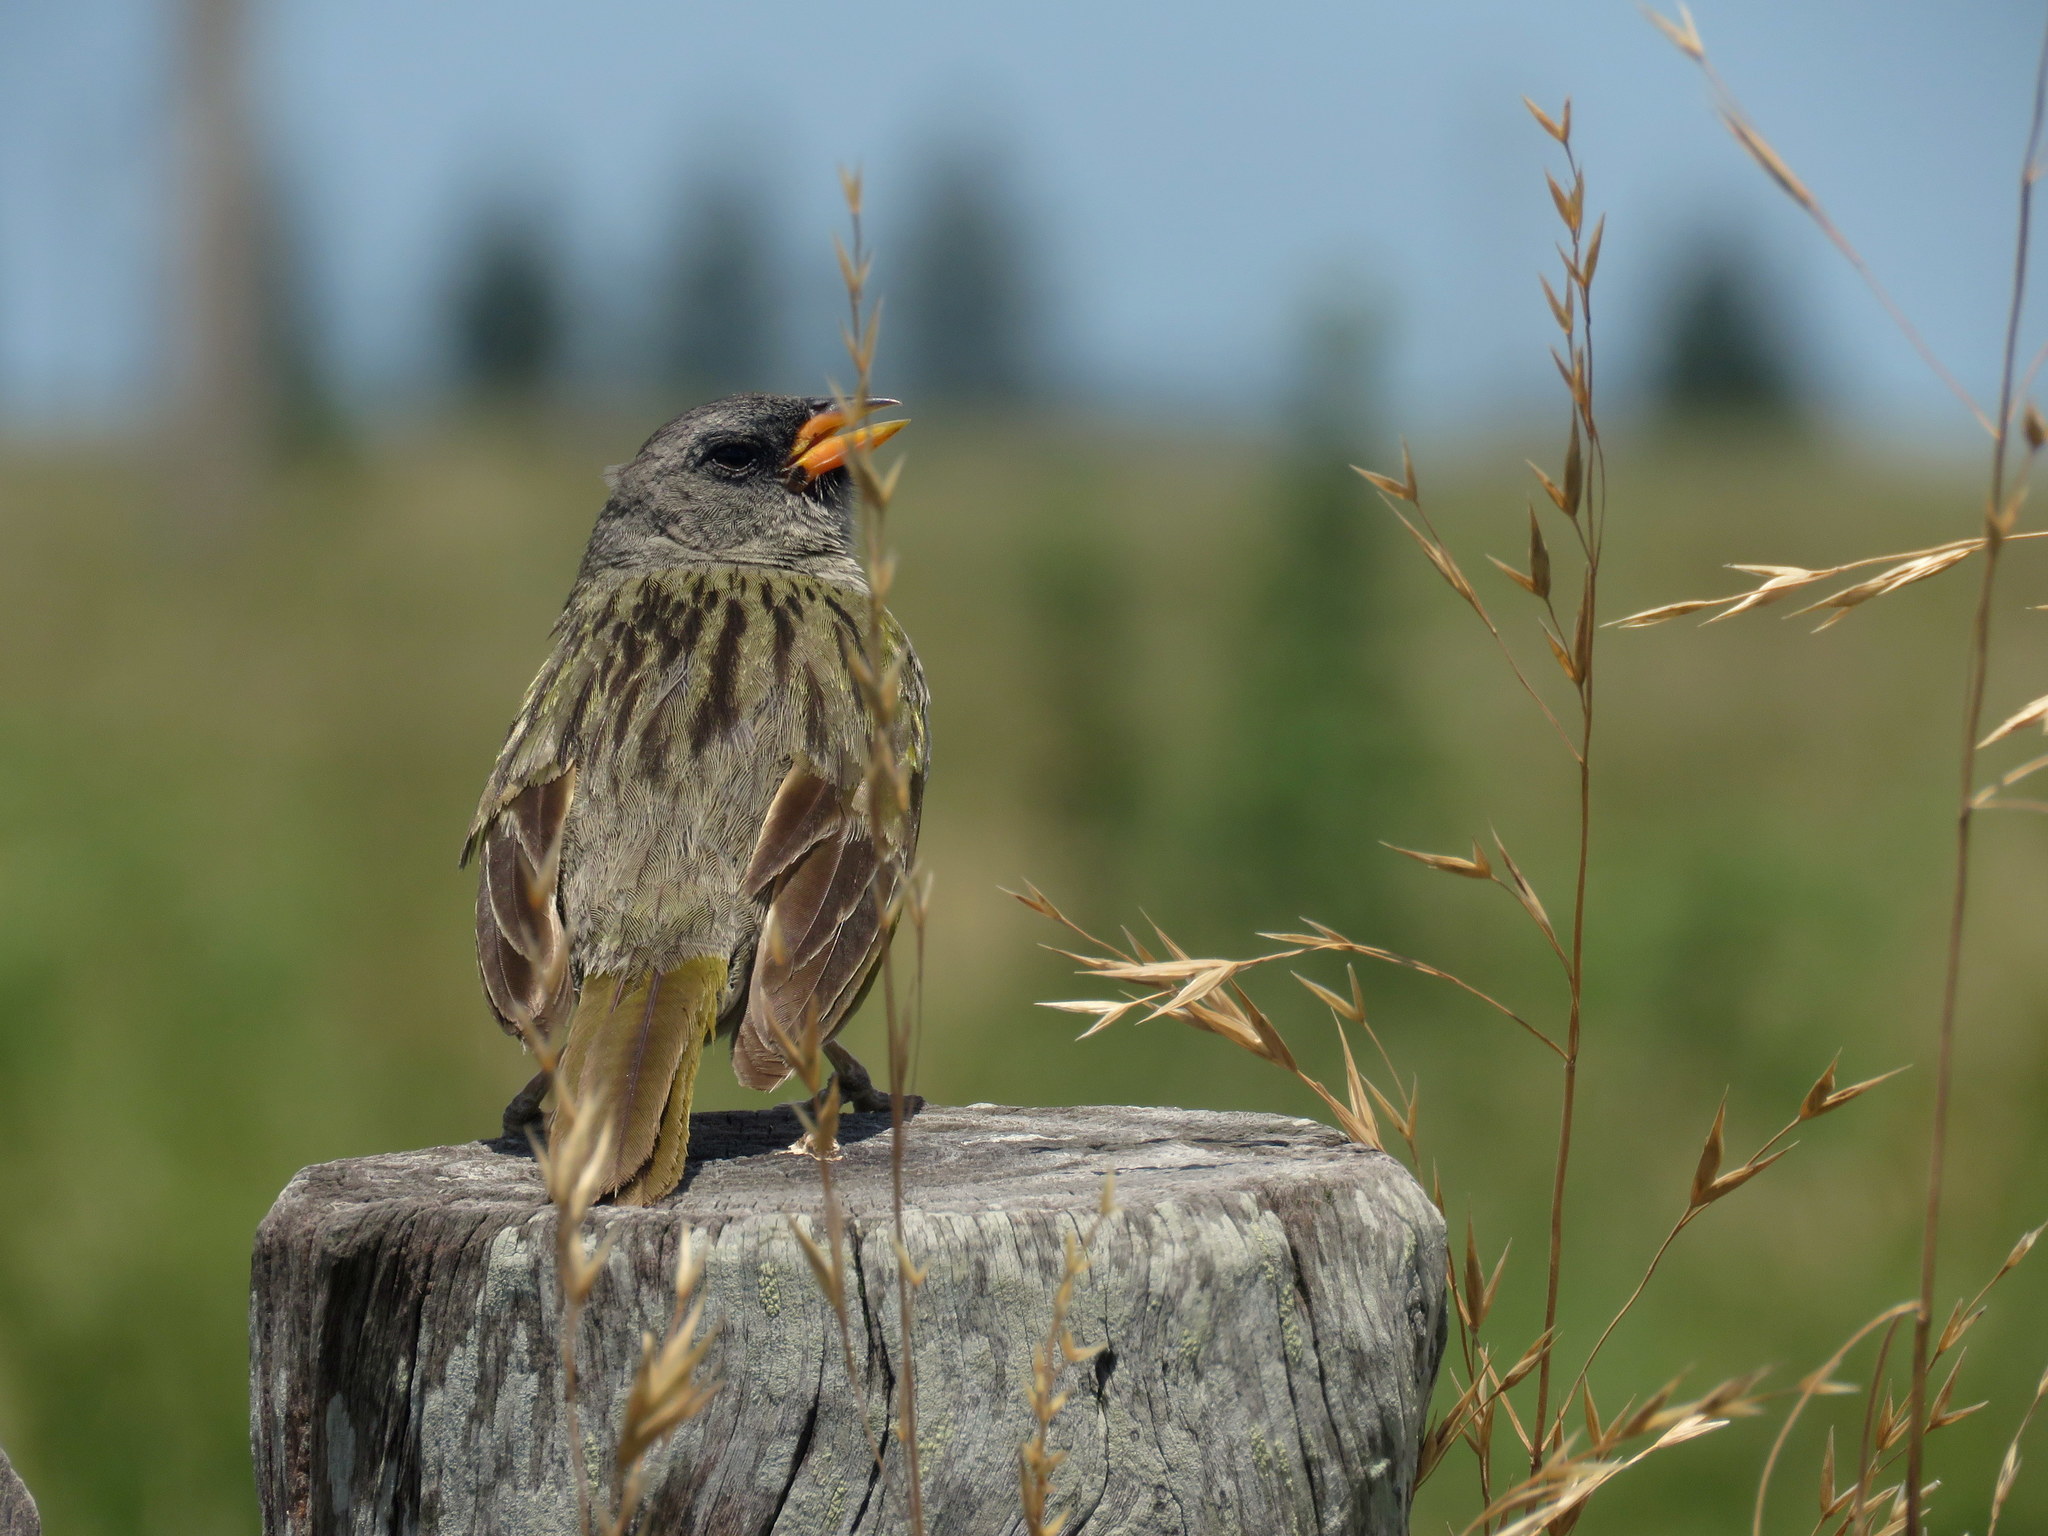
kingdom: Animalia
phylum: Chordata
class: Aves
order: Passeriformes
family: Thraupidae
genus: Embernagra
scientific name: Embernagra platensis
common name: Pampa finch
